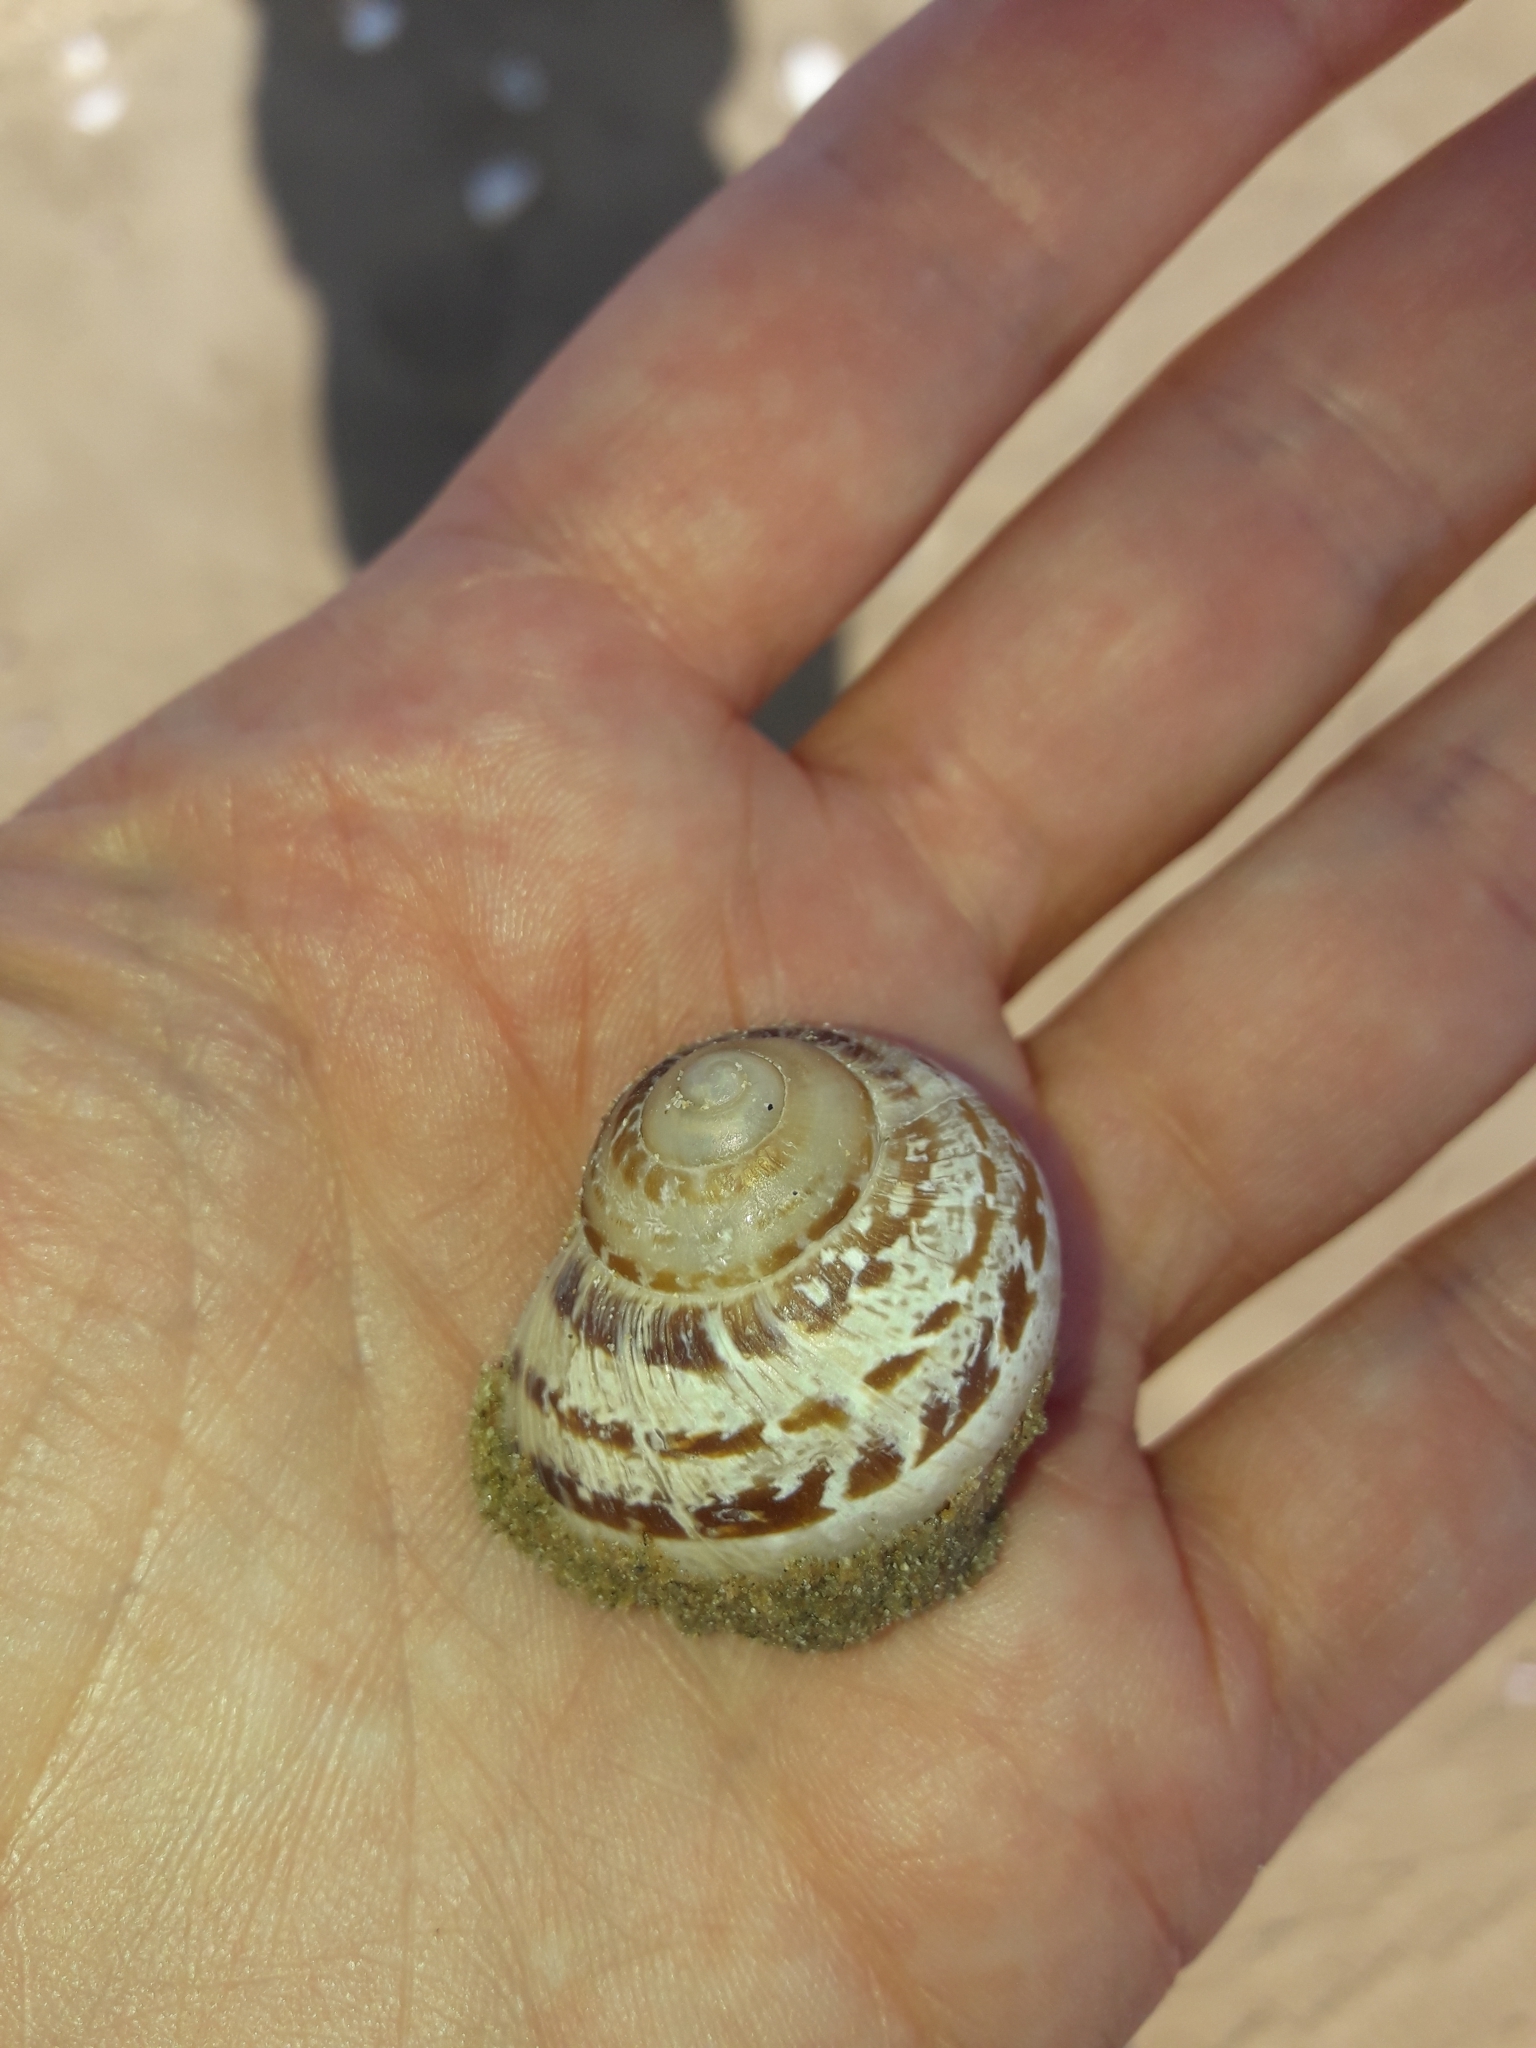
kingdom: Animalia
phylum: Mollusca
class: Gastropoda
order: Stylommatophora
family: Helicidae
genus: Cornu
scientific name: Cornu aspersum
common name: Brown garden snail
